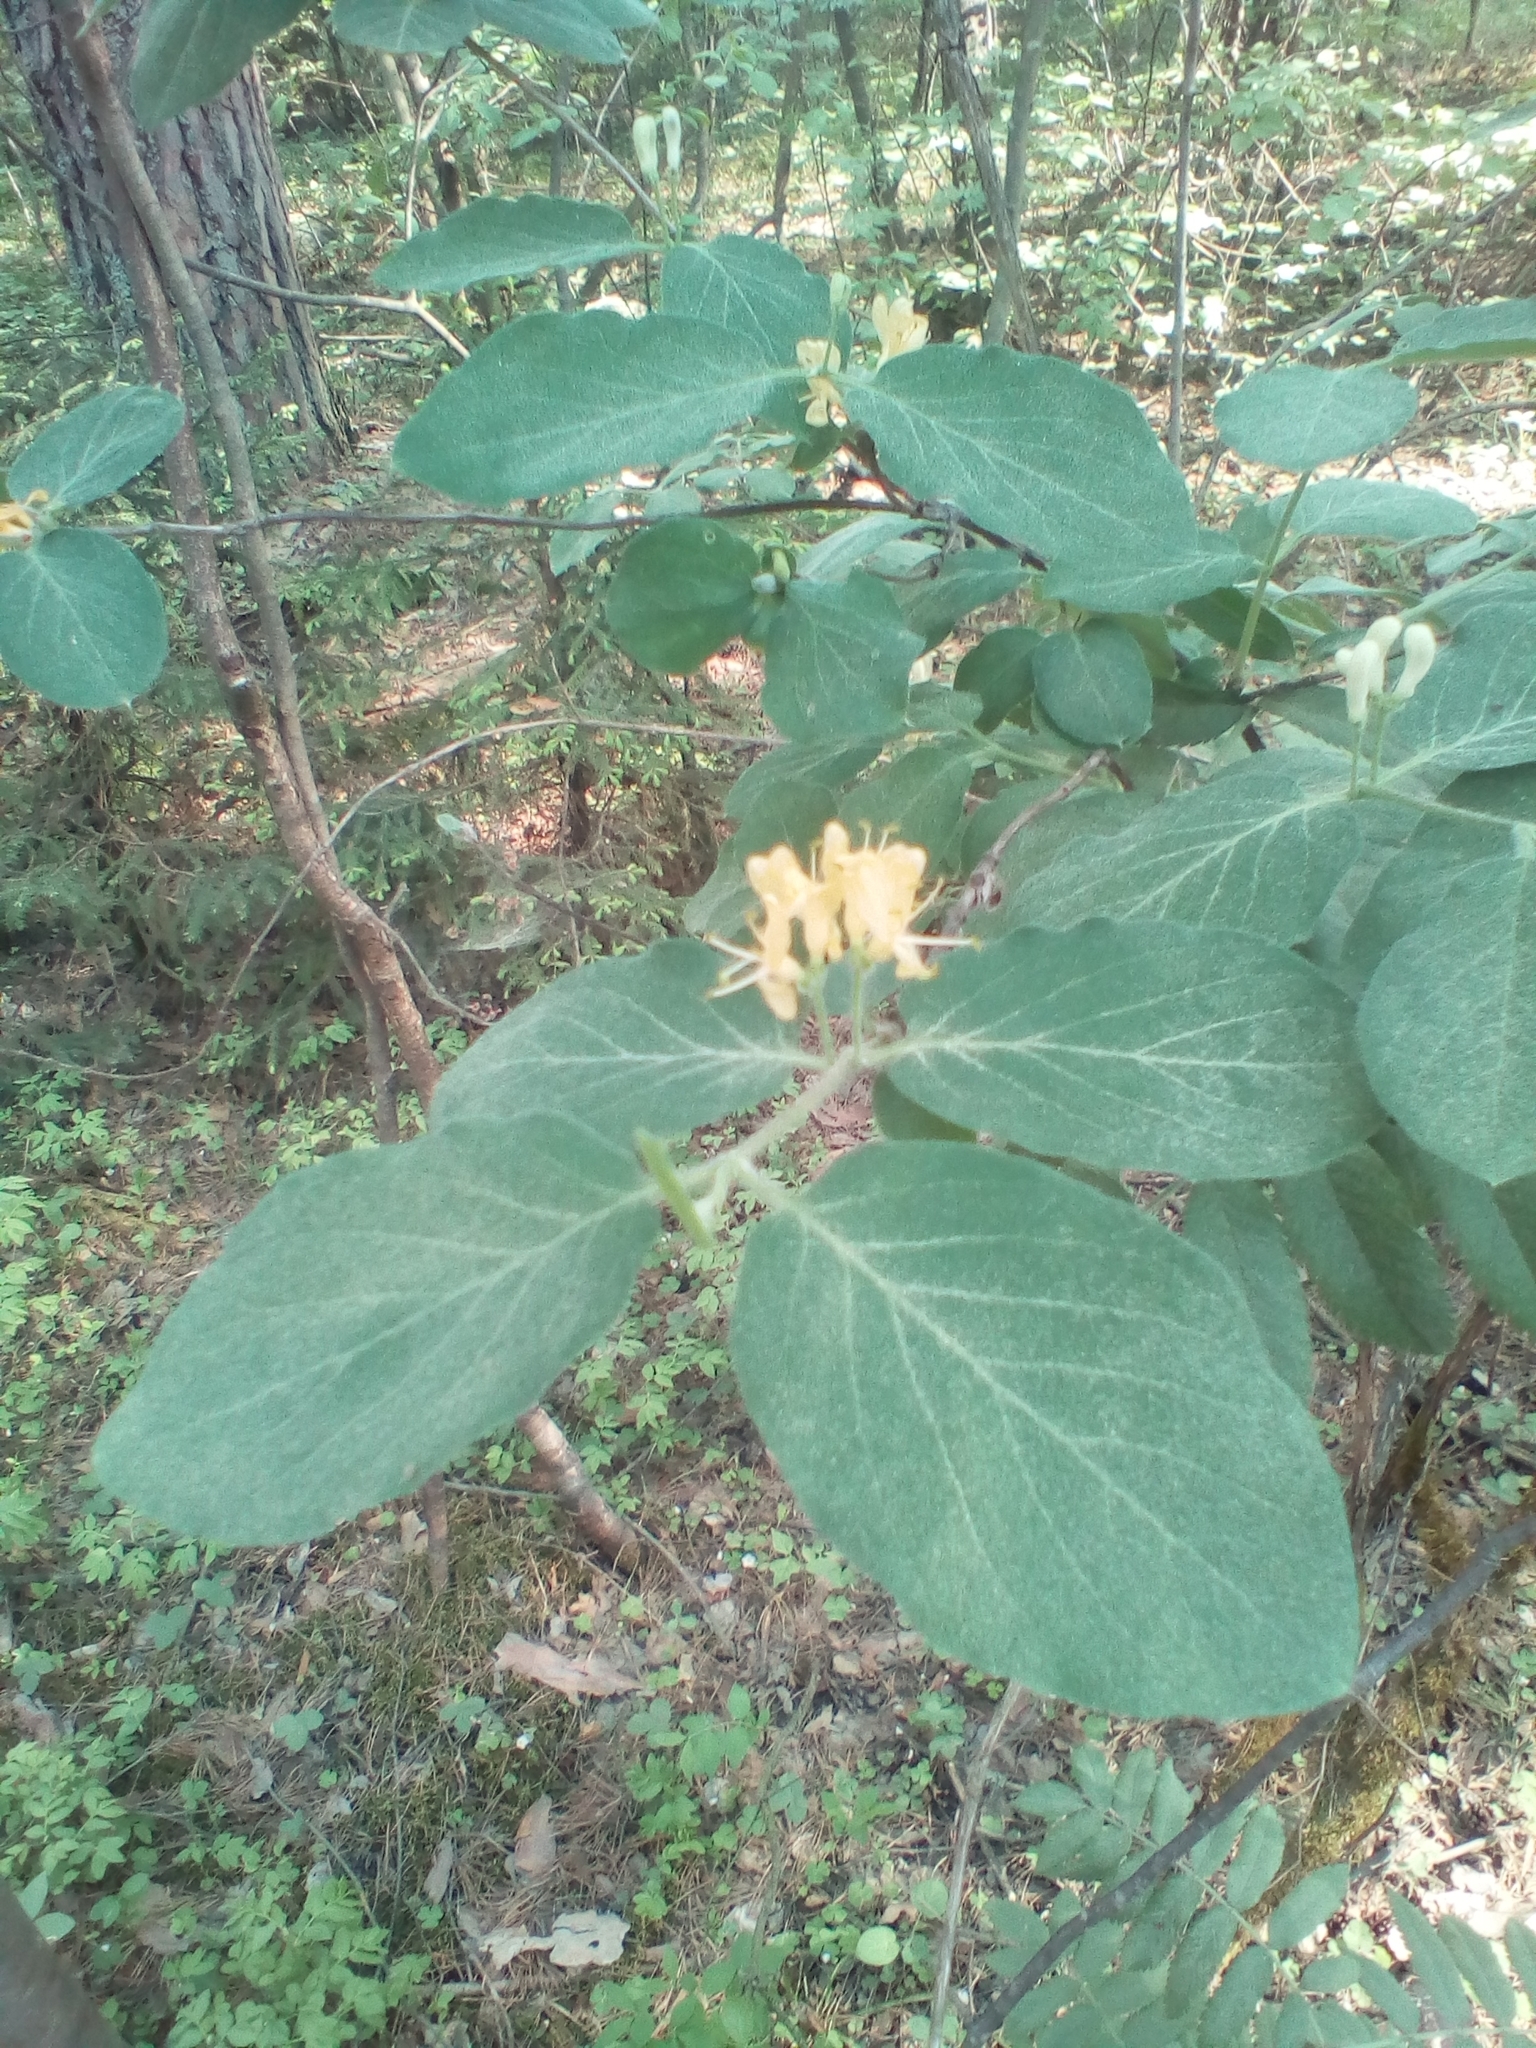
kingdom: Plantae
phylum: Tracheophyta
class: Magnoliopsida
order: Dipsacales
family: Caprifoliaceae
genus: Lonicera
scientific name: Lonicera xylosteum
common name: Fly honeysuckle
